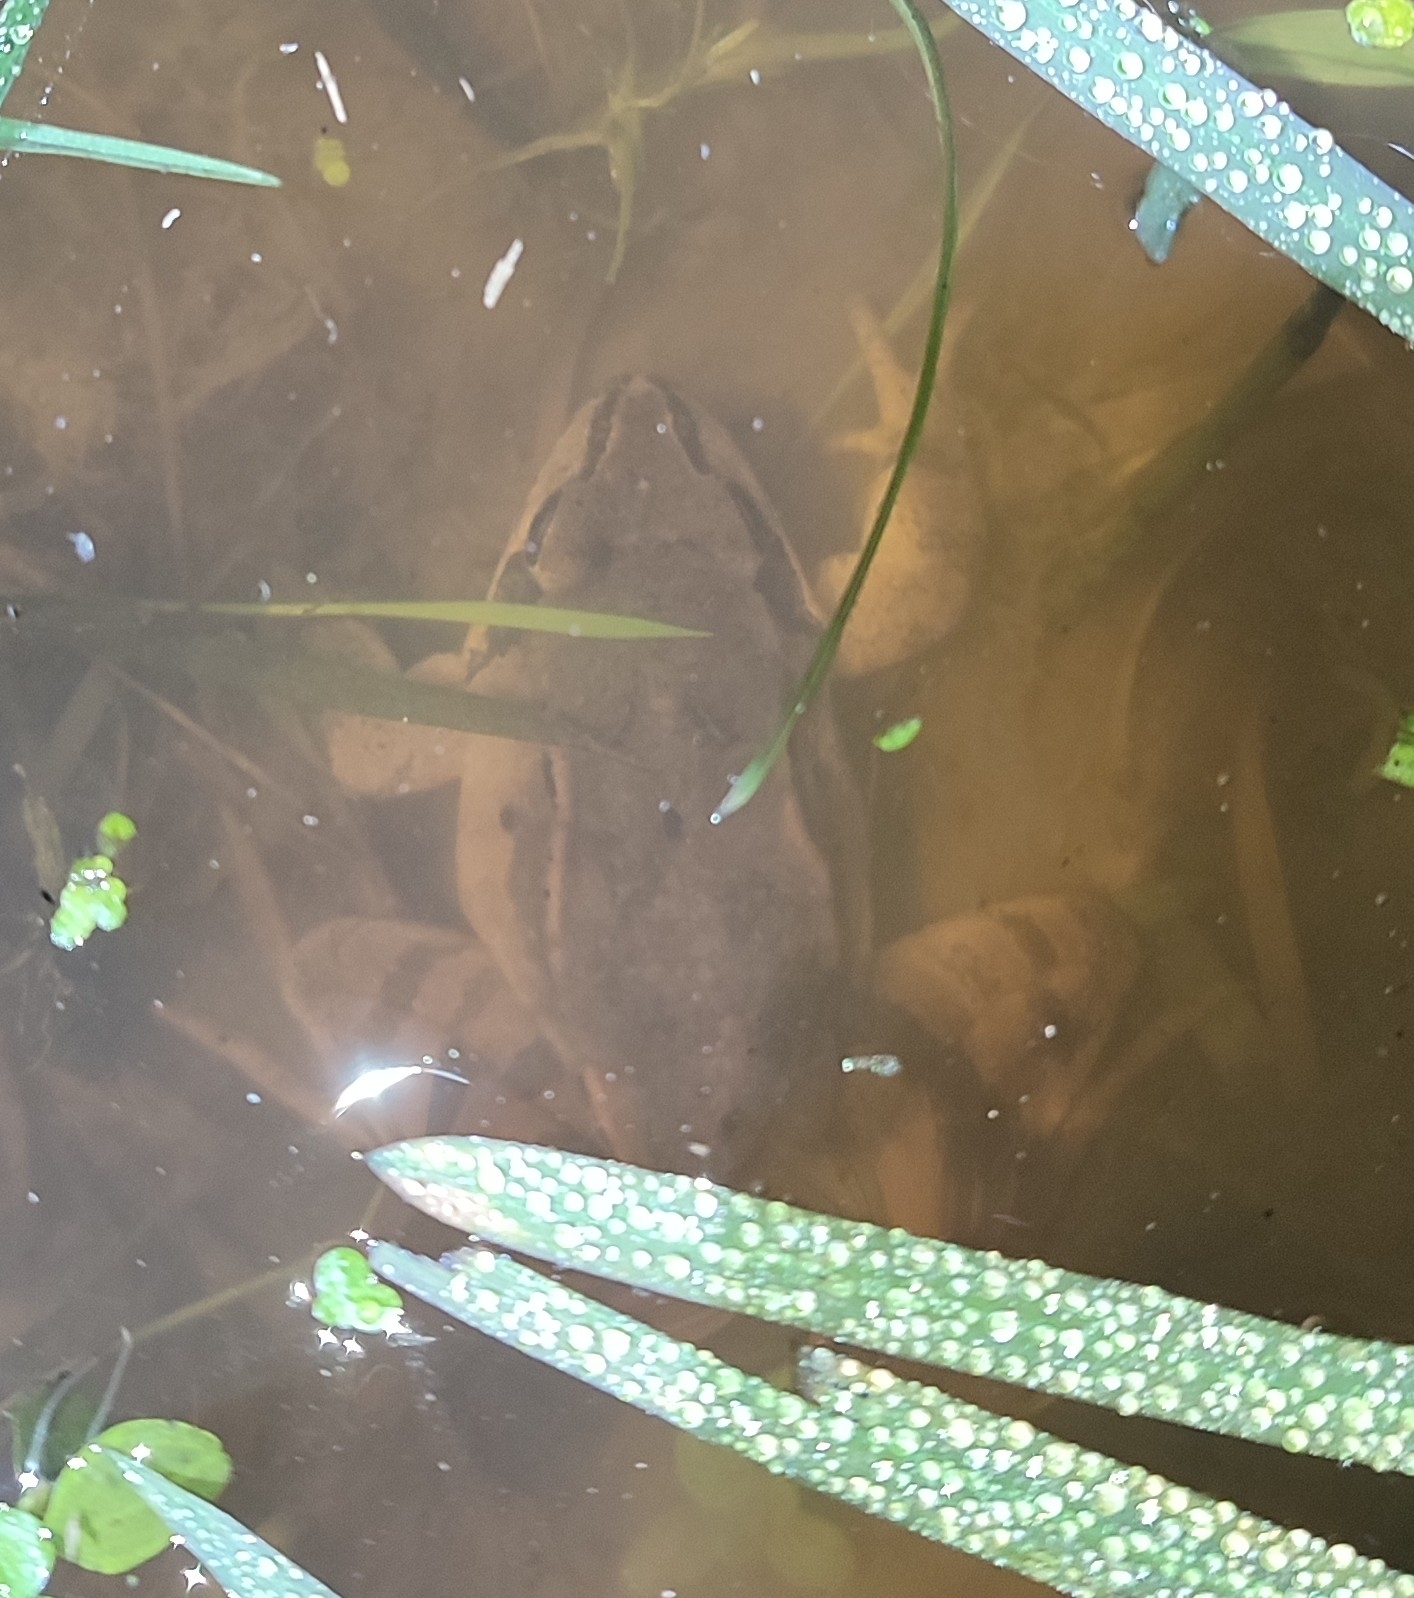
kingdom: Animalia
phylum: Chordata
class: Amphibia
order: Anura
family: Ranidae
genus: Rana
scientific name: Rana dalmatina
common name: Agile frog
